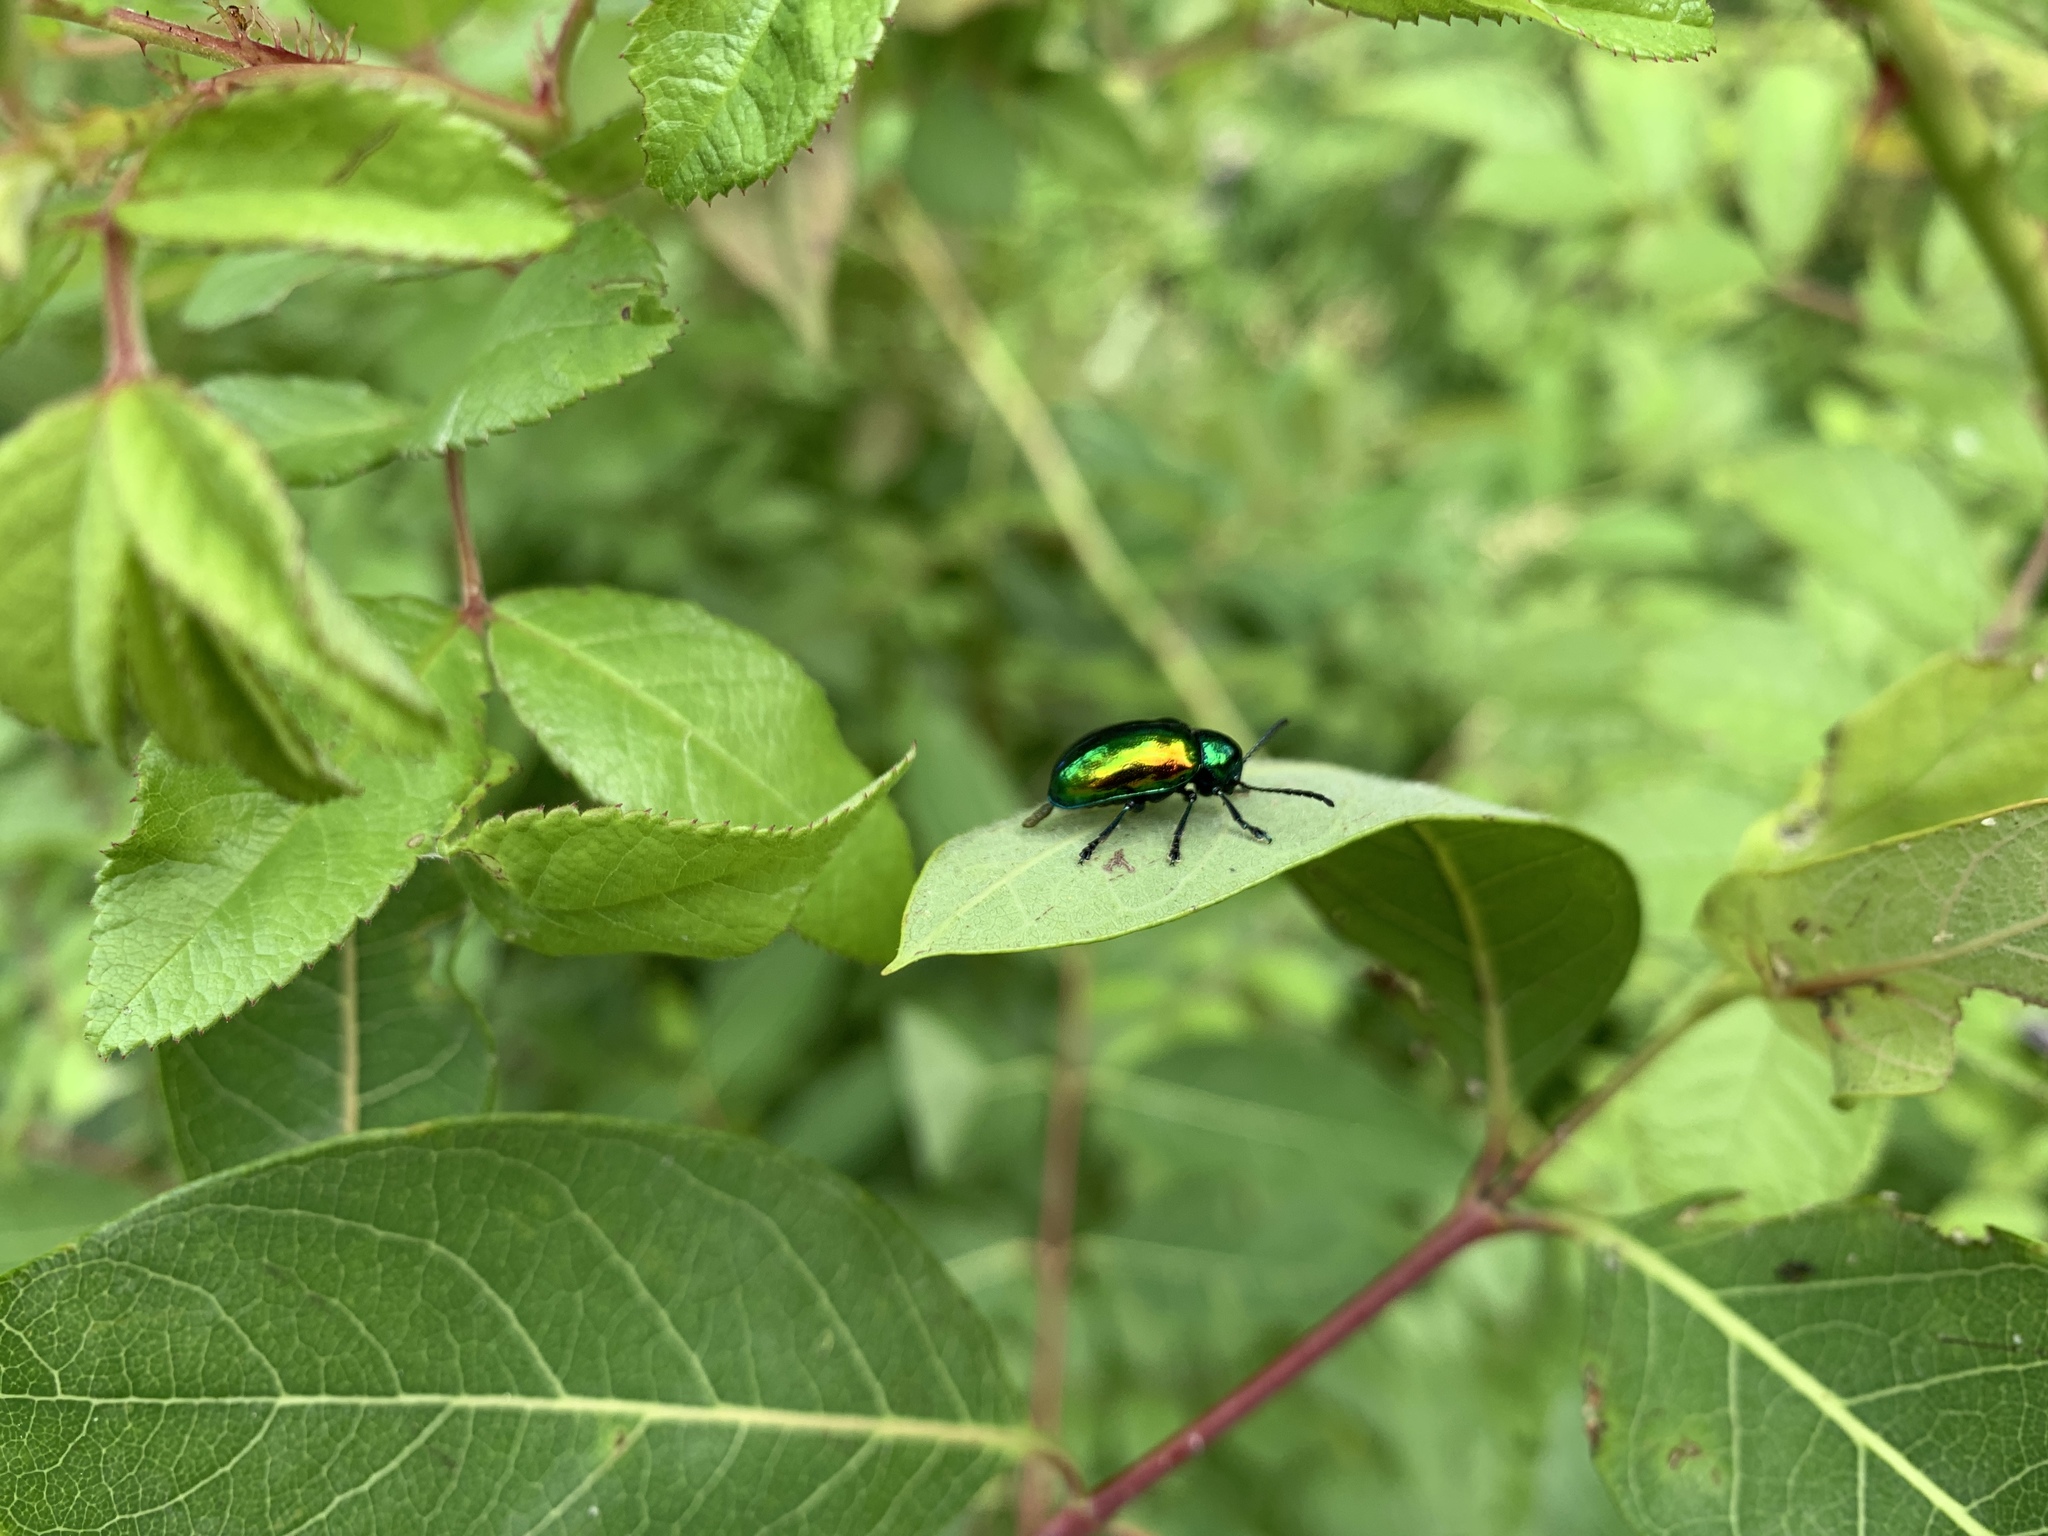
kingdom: Animalia
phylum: Arthropoda
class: Insecta
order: Coleoptera
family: Chrysomelidae
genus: Chrysochus
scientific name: Chrysochus auratus
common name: Dogbane leaf beetle
